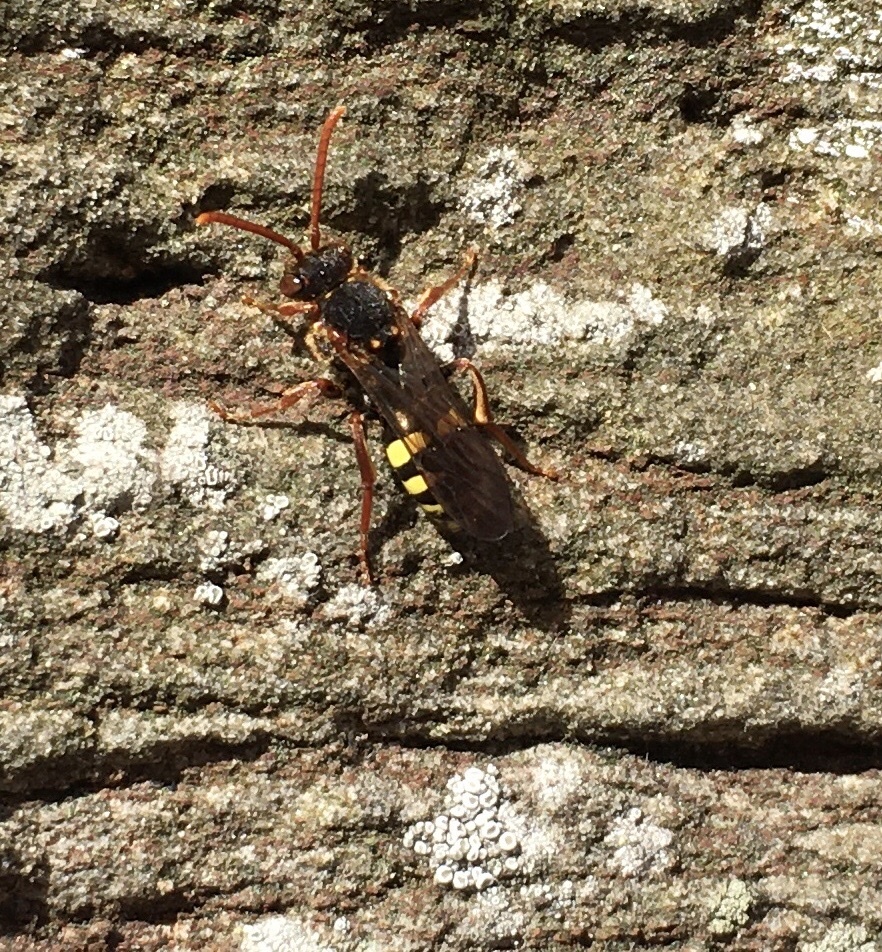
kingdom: Animalia
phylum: Arthropoda
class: Insecta
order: Hymenoptera
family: Apidae
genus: Nomada
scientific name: Nomada marshamella
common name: Marsham's nomad bee
